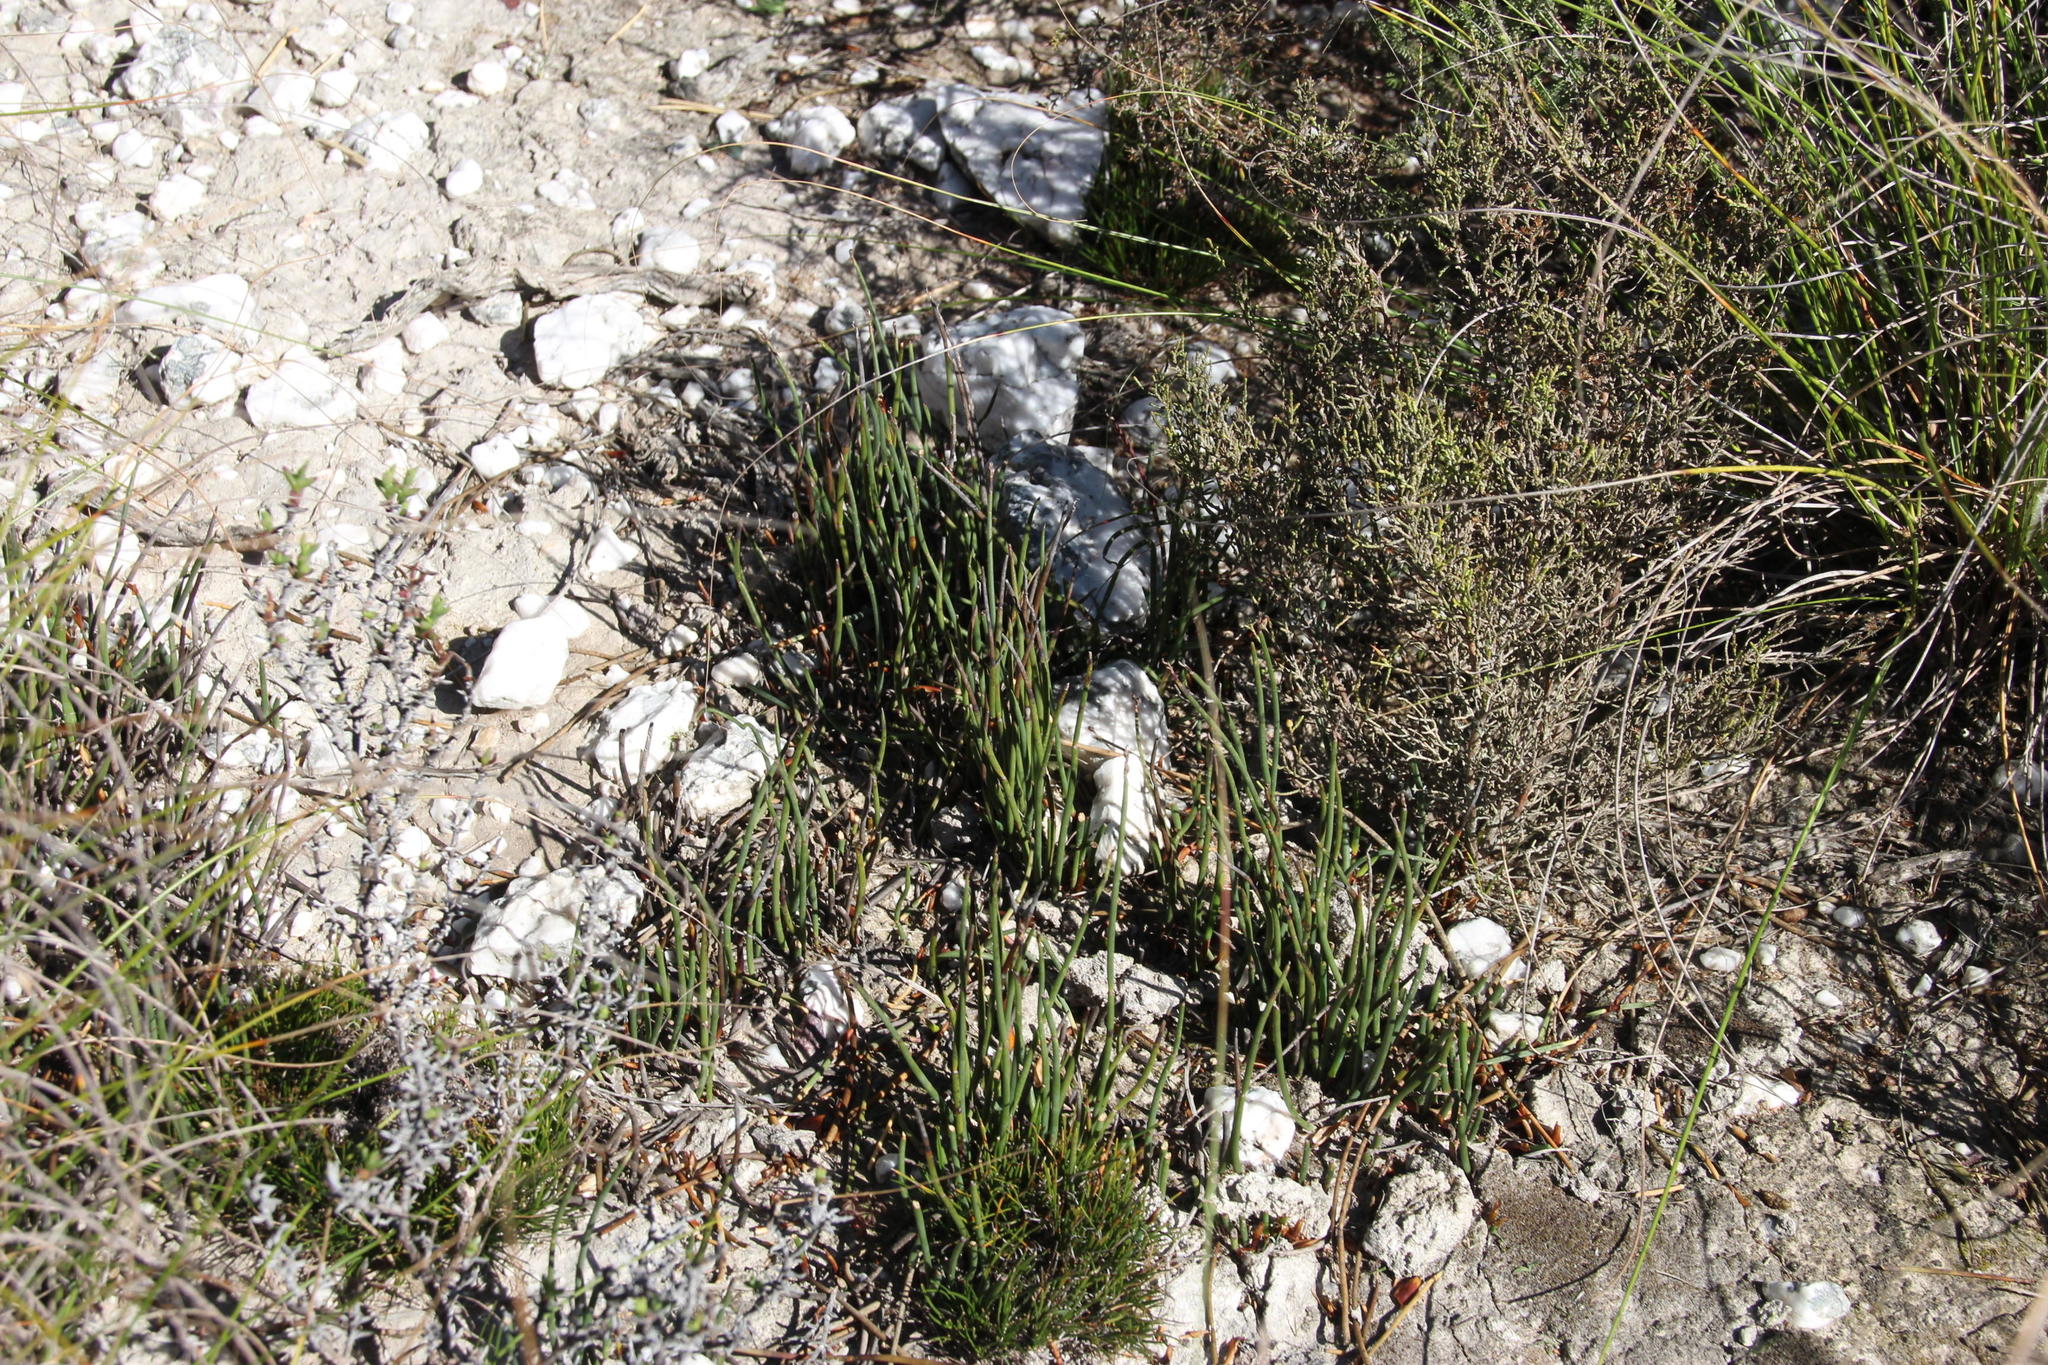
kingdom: Plantae
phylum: Tracheophyta
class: Liliopsida
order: Poales
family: Restionaceae
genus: Elegia
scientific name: Elegia squamosa
